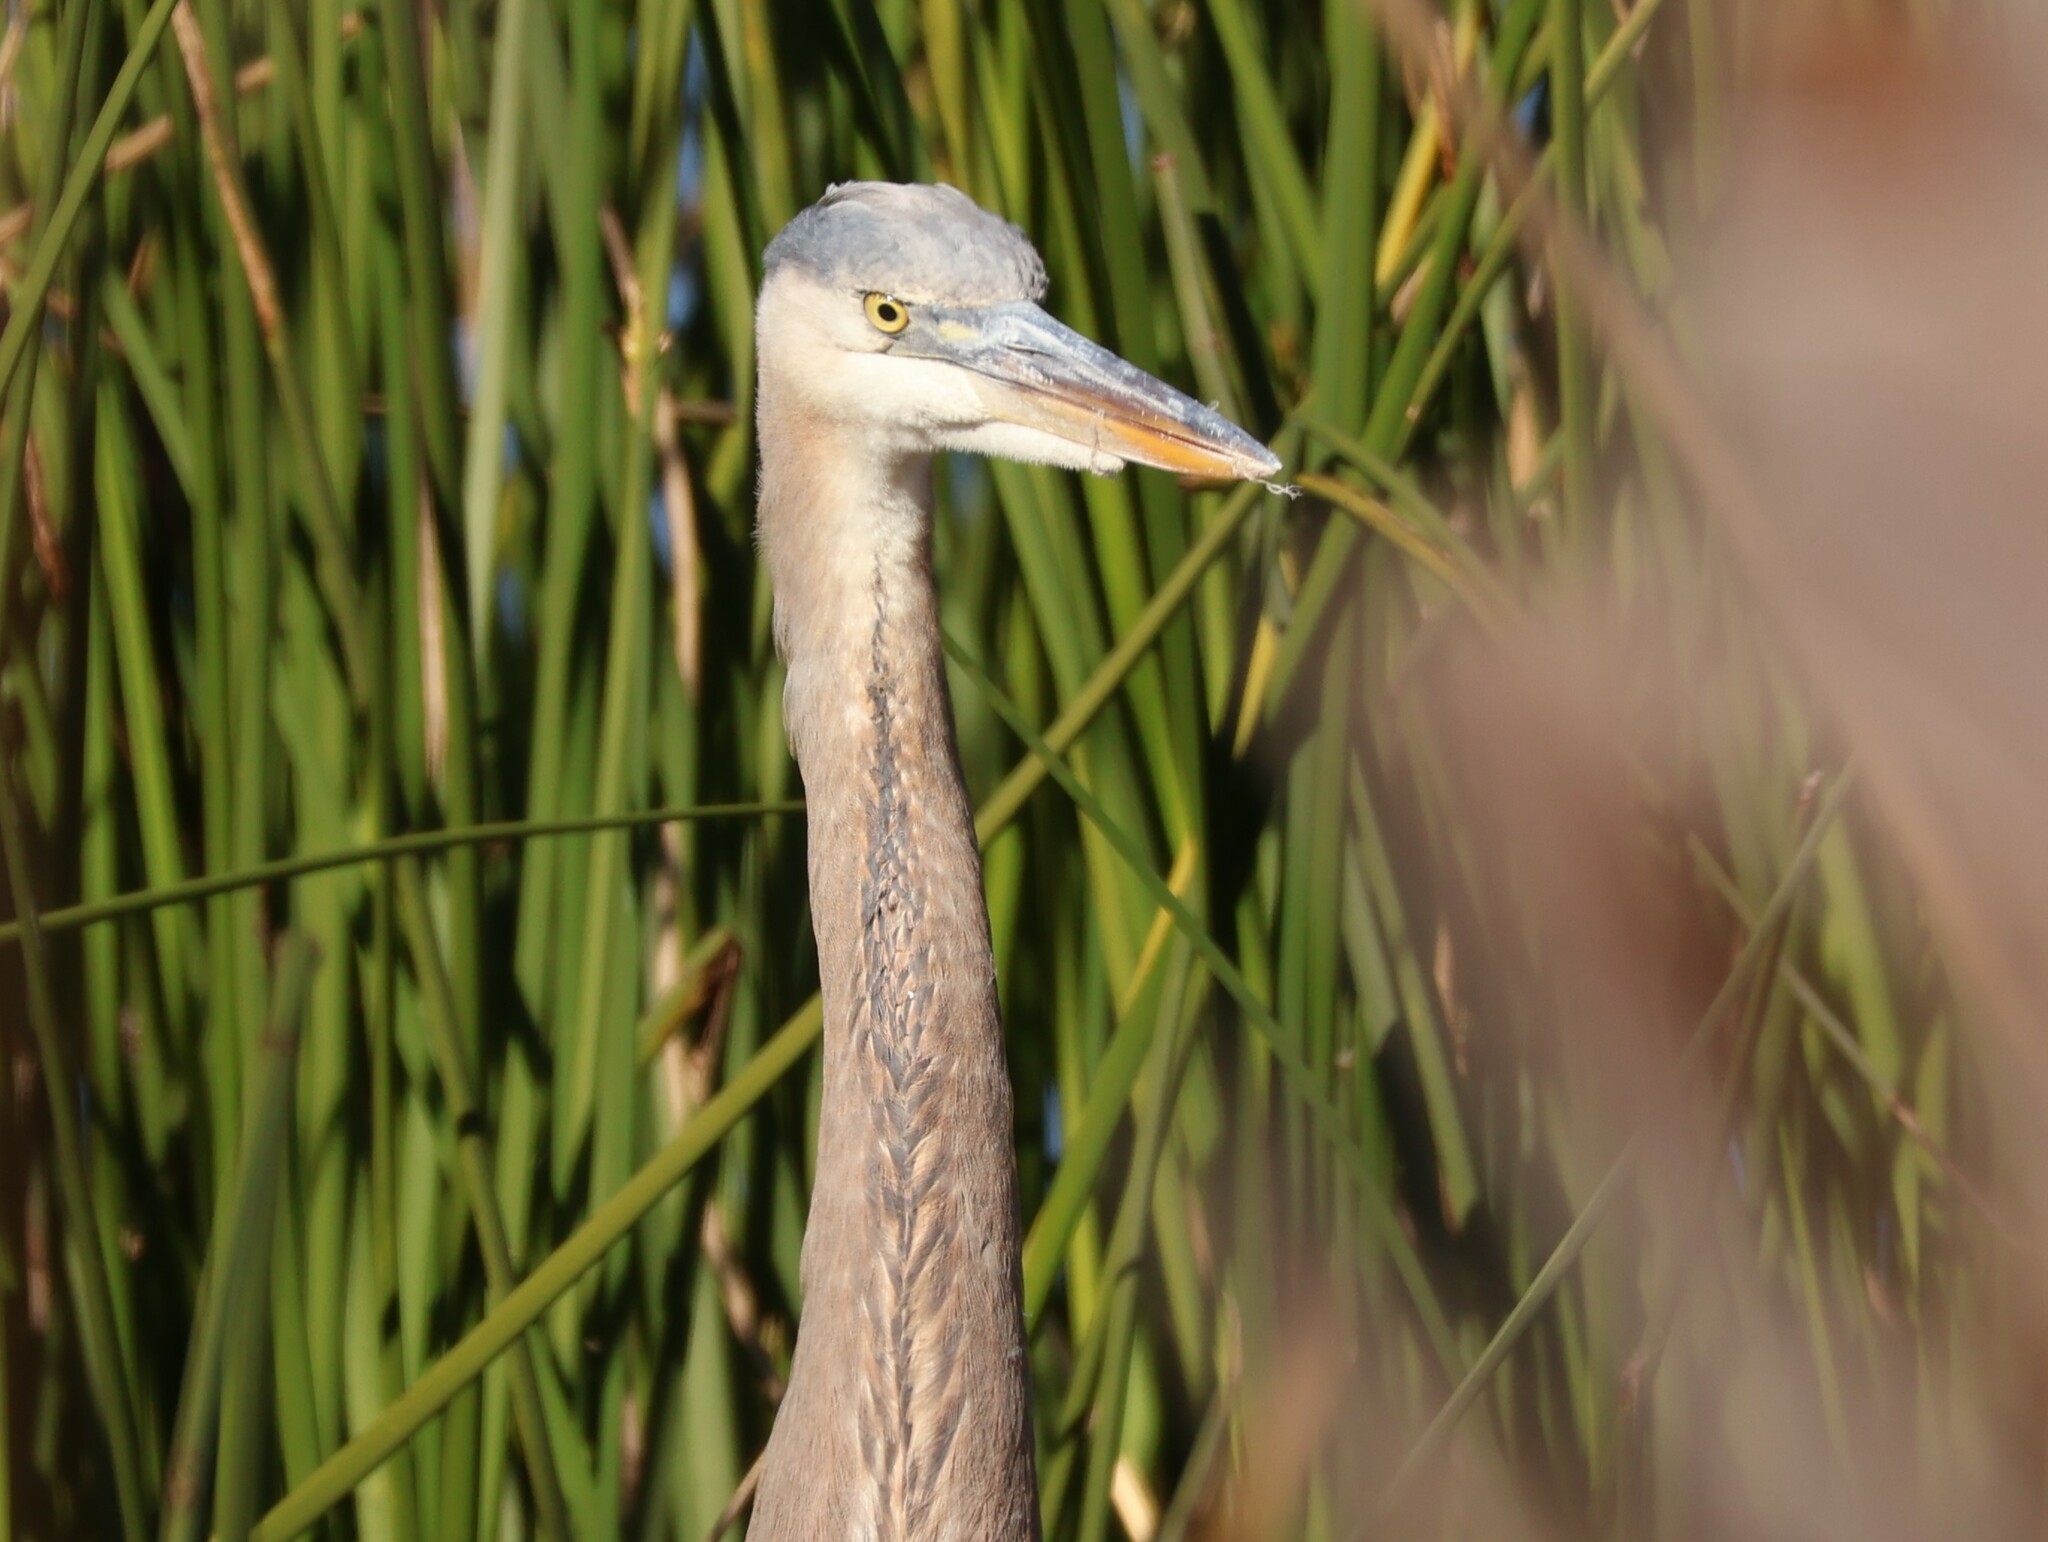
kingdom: Animalia
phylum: Chordata
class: Aves
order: Pelecaniformes
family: Ardeidae
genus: Ardea
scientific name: Ardea herodias
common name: Great blue heron
